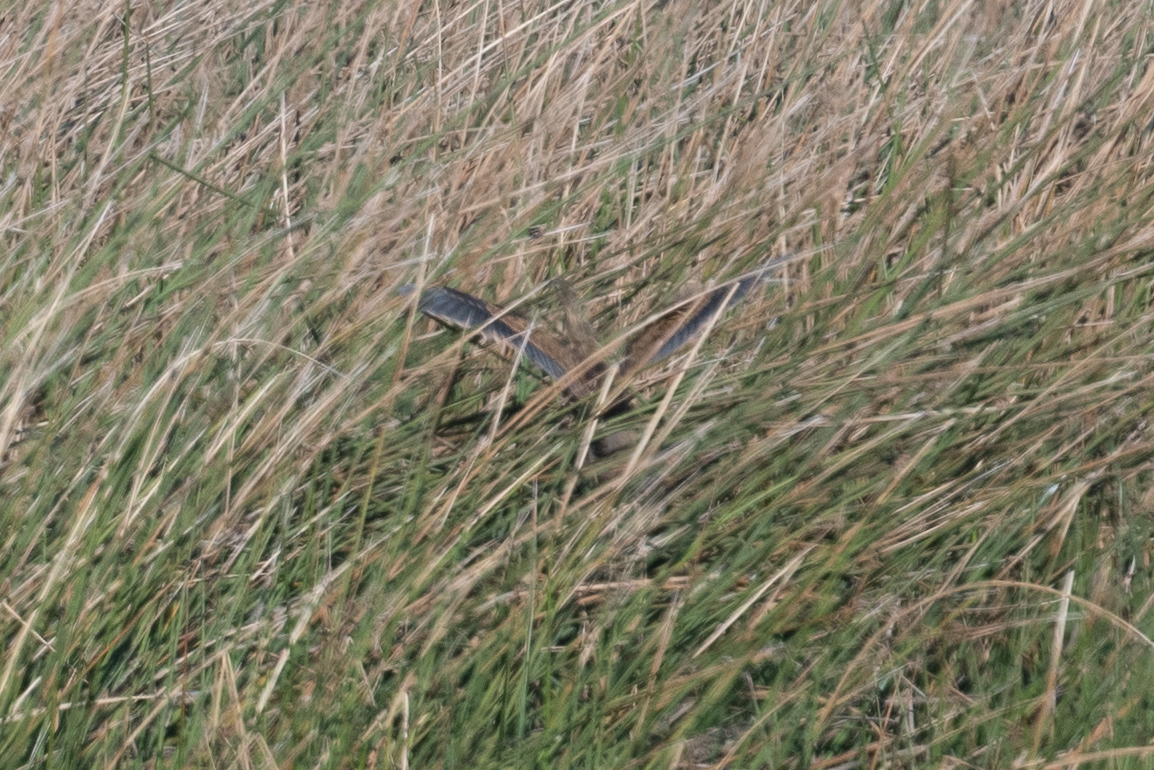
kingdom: Animalia
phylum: Chordata
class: Aves
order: Pelecaniformes
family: Ardeidae
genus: Botaurus
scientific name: Botaurus lentiginosus
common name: American bittern
